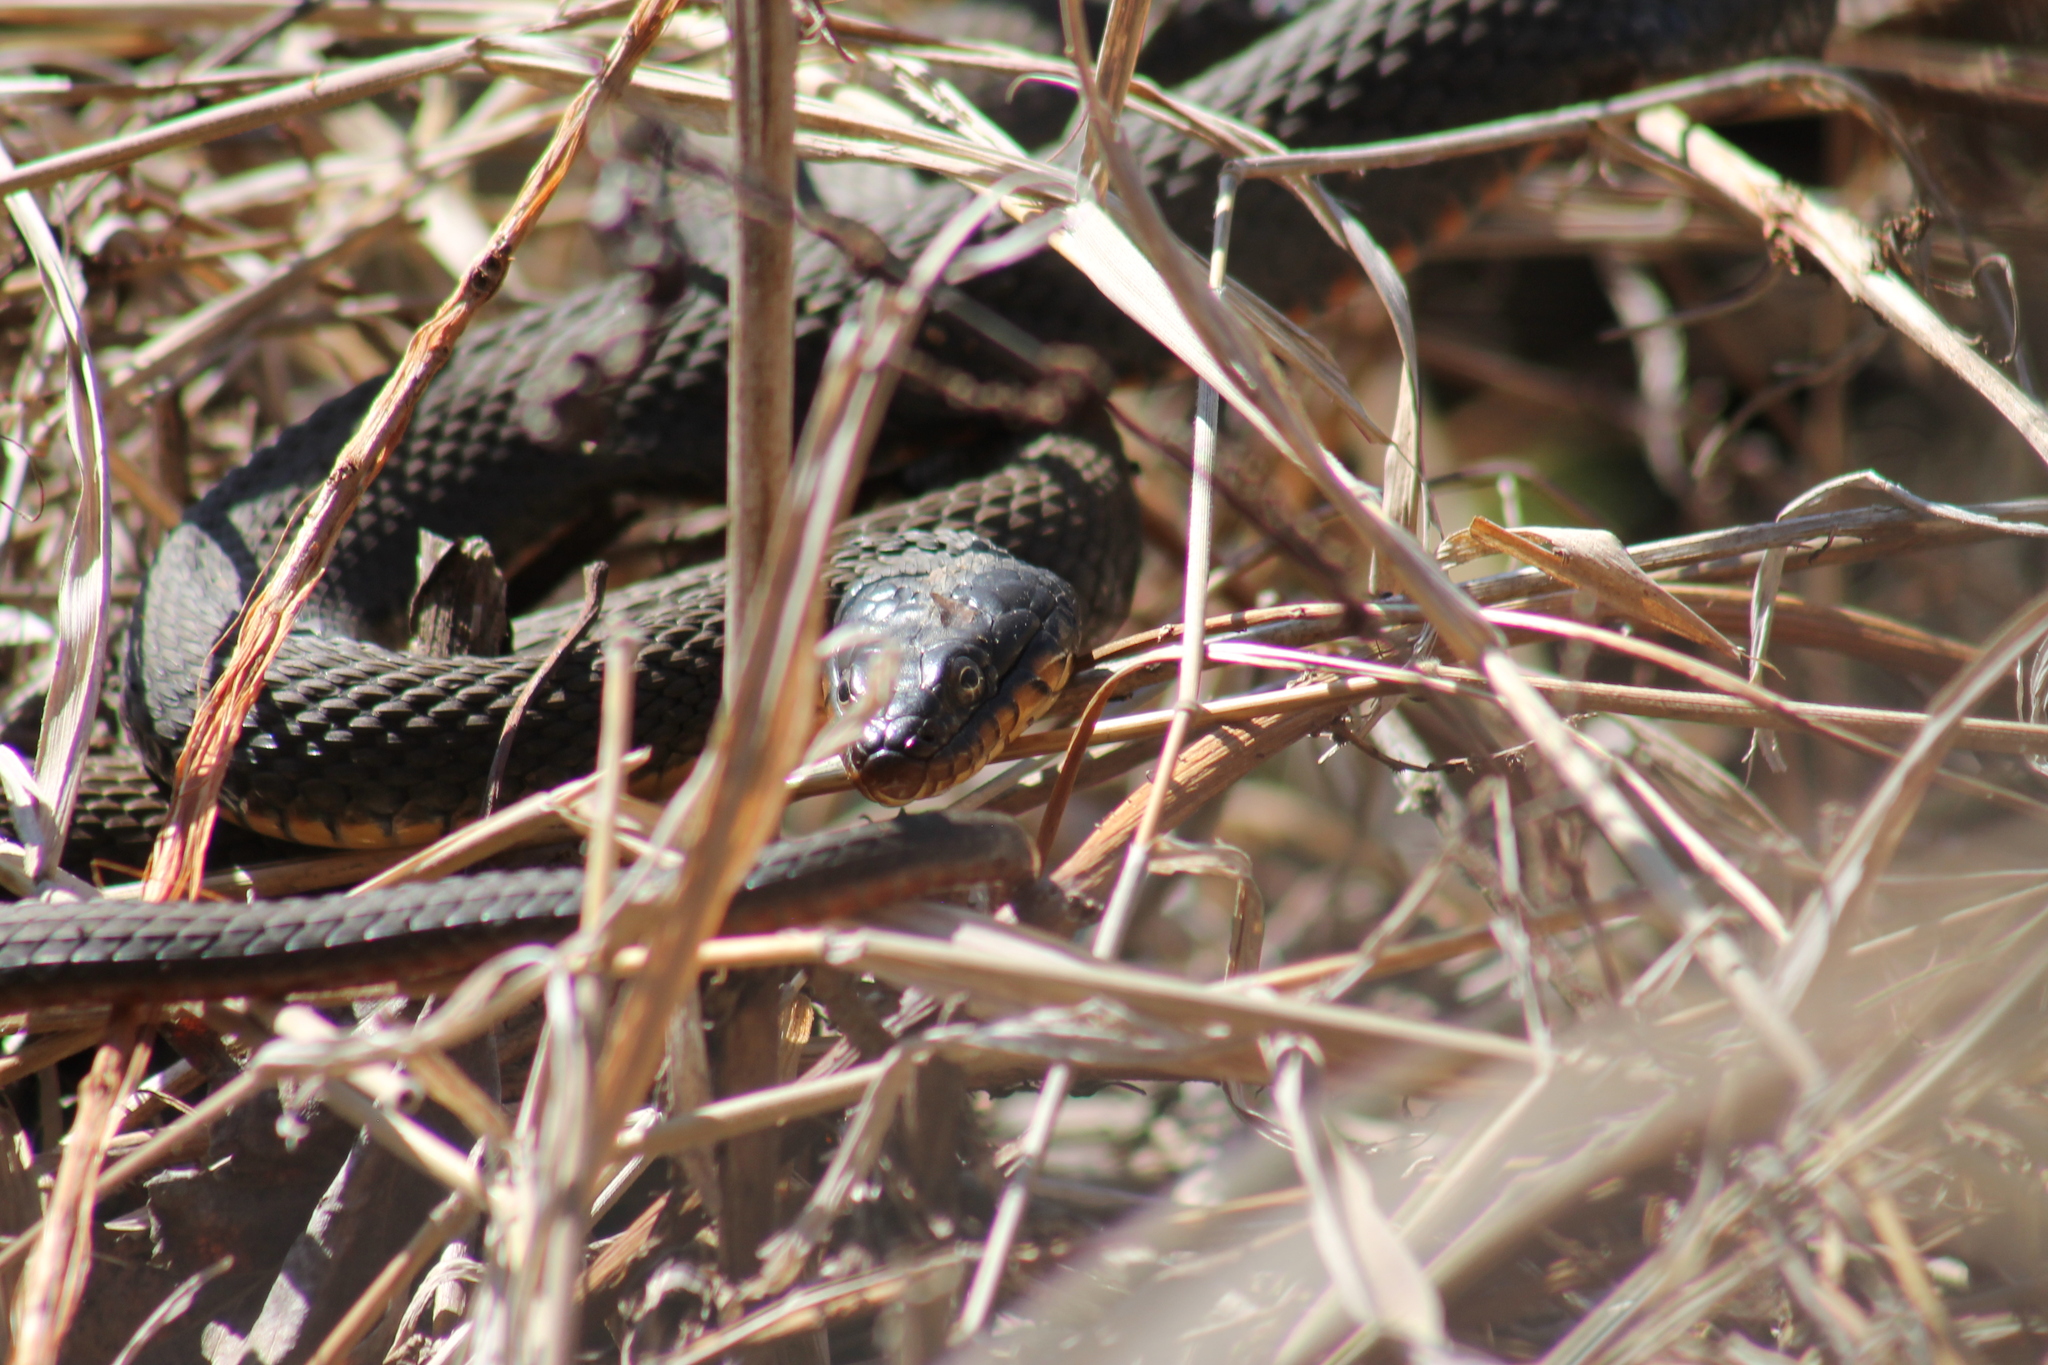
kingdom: Animalia
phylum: Chordata
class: Squamata
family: Colubridae
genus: Nerodia
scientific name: Nerodia erythrogaster
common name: Plainbelly water snake
